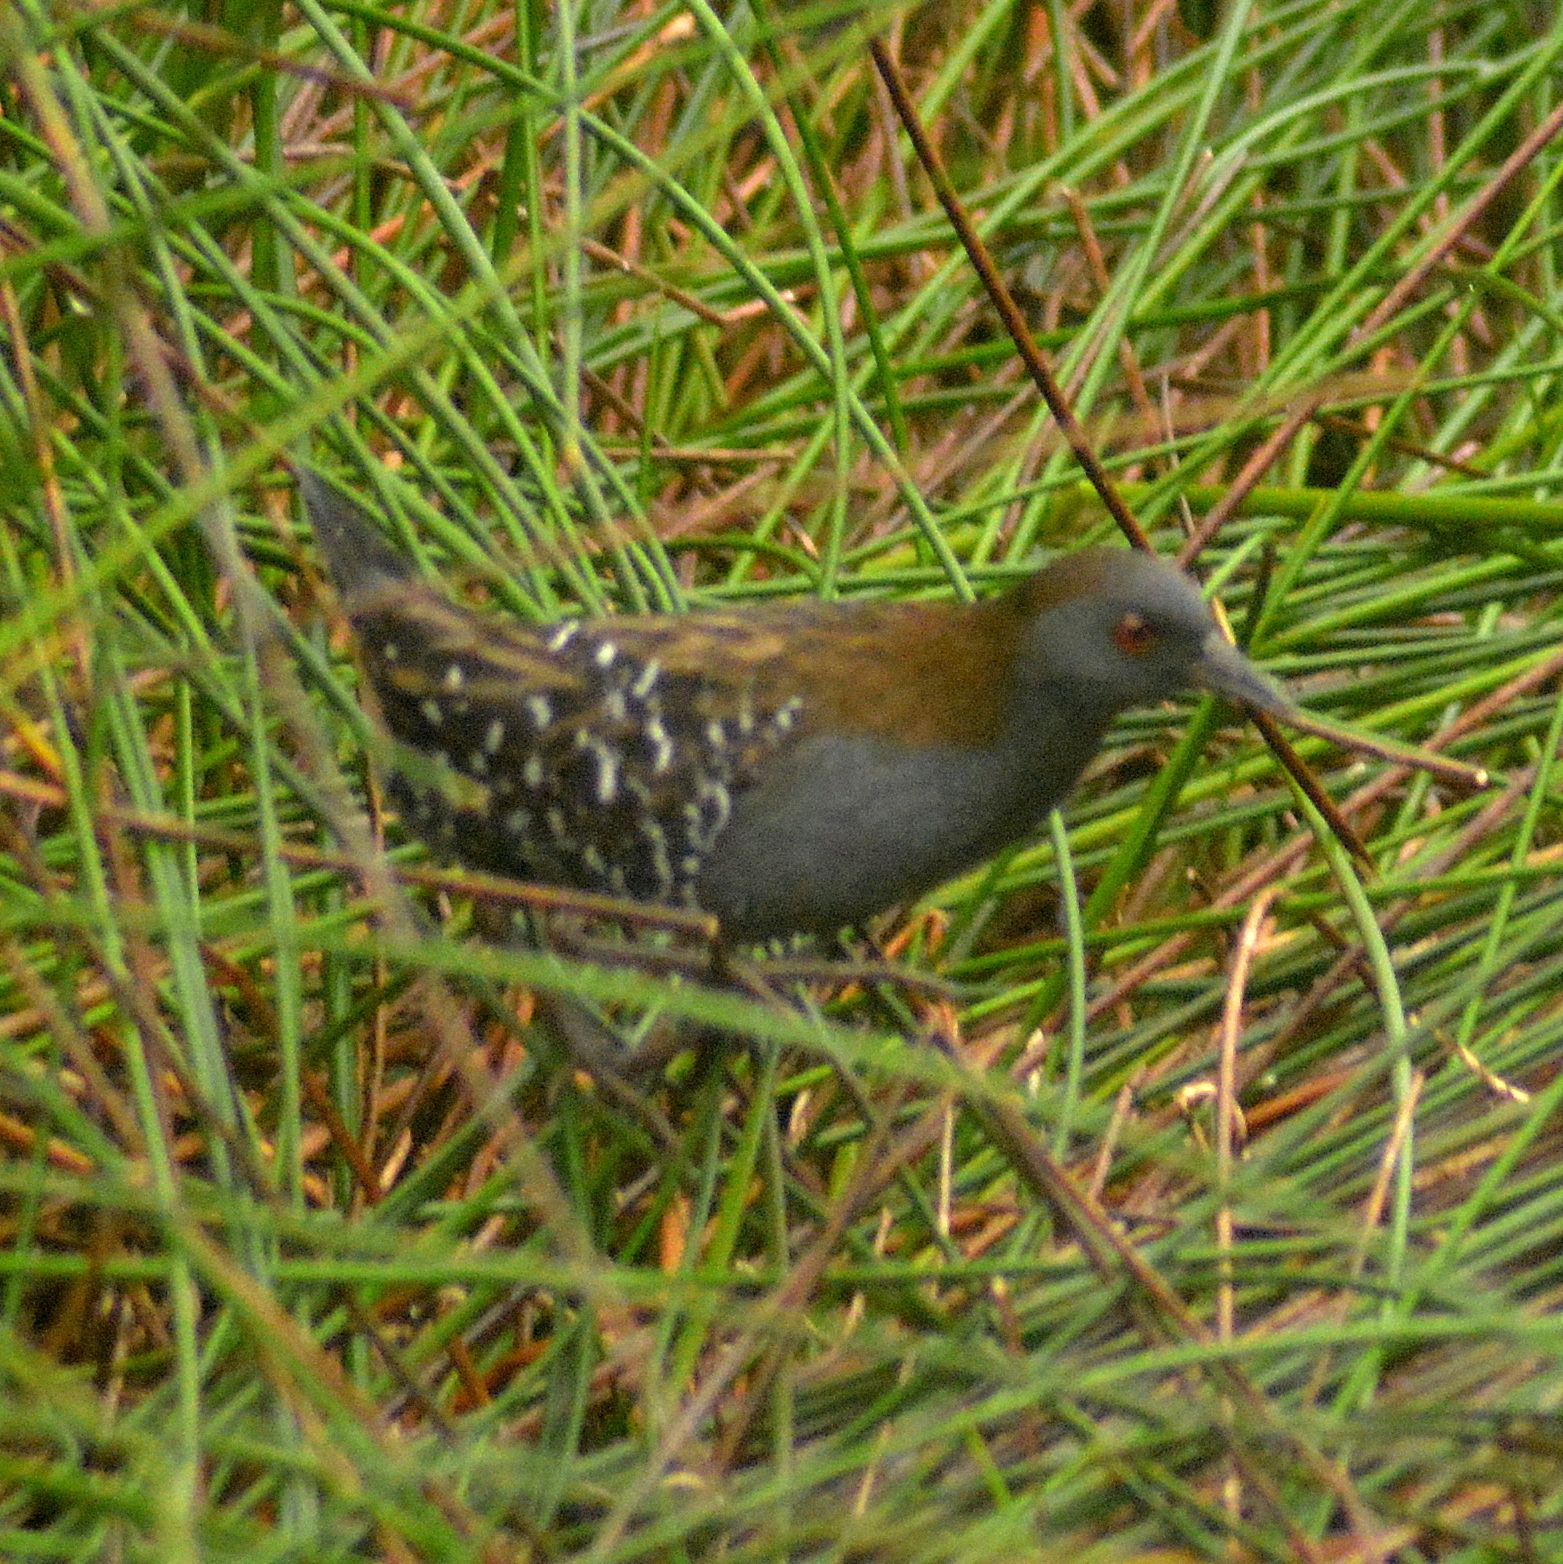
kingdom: Animalia
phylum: Chordata
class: Aves
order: Gruiformes
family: Rallidae
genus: Porzana
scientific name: Porzana spiloptera
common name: Dot-winged crake
